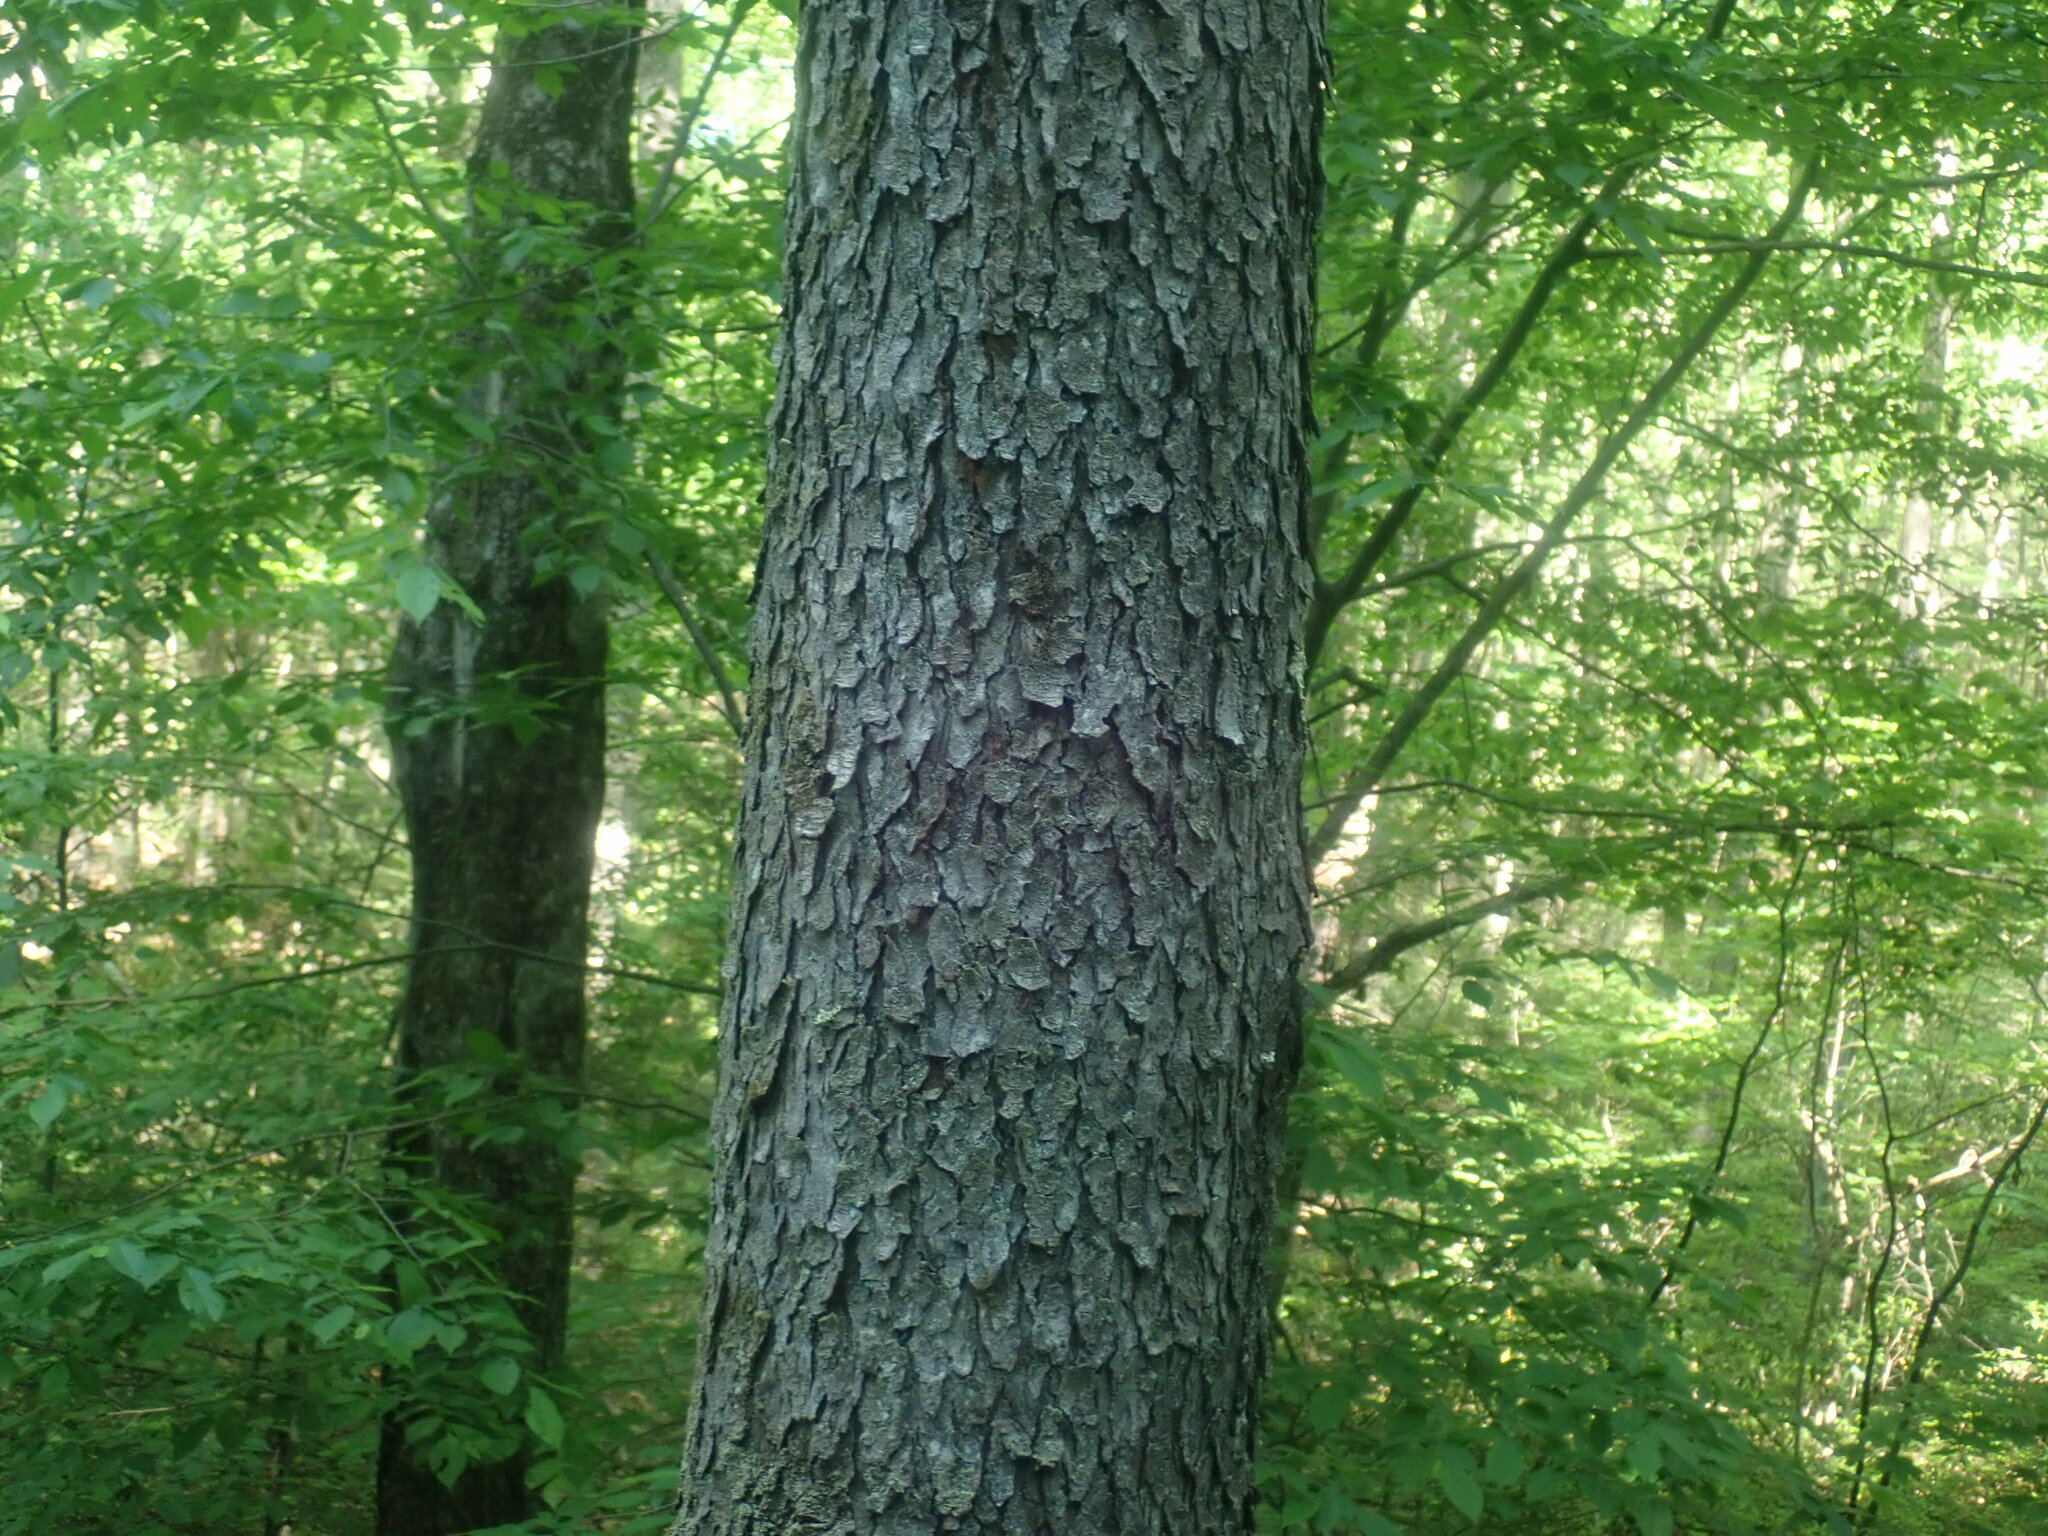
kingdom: Plantae
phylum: Tracheophyta
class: Magnoliopsida
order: Rosales
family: Rosaceae
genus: Prunus
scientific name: Prunus serotina
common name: Black cherry
